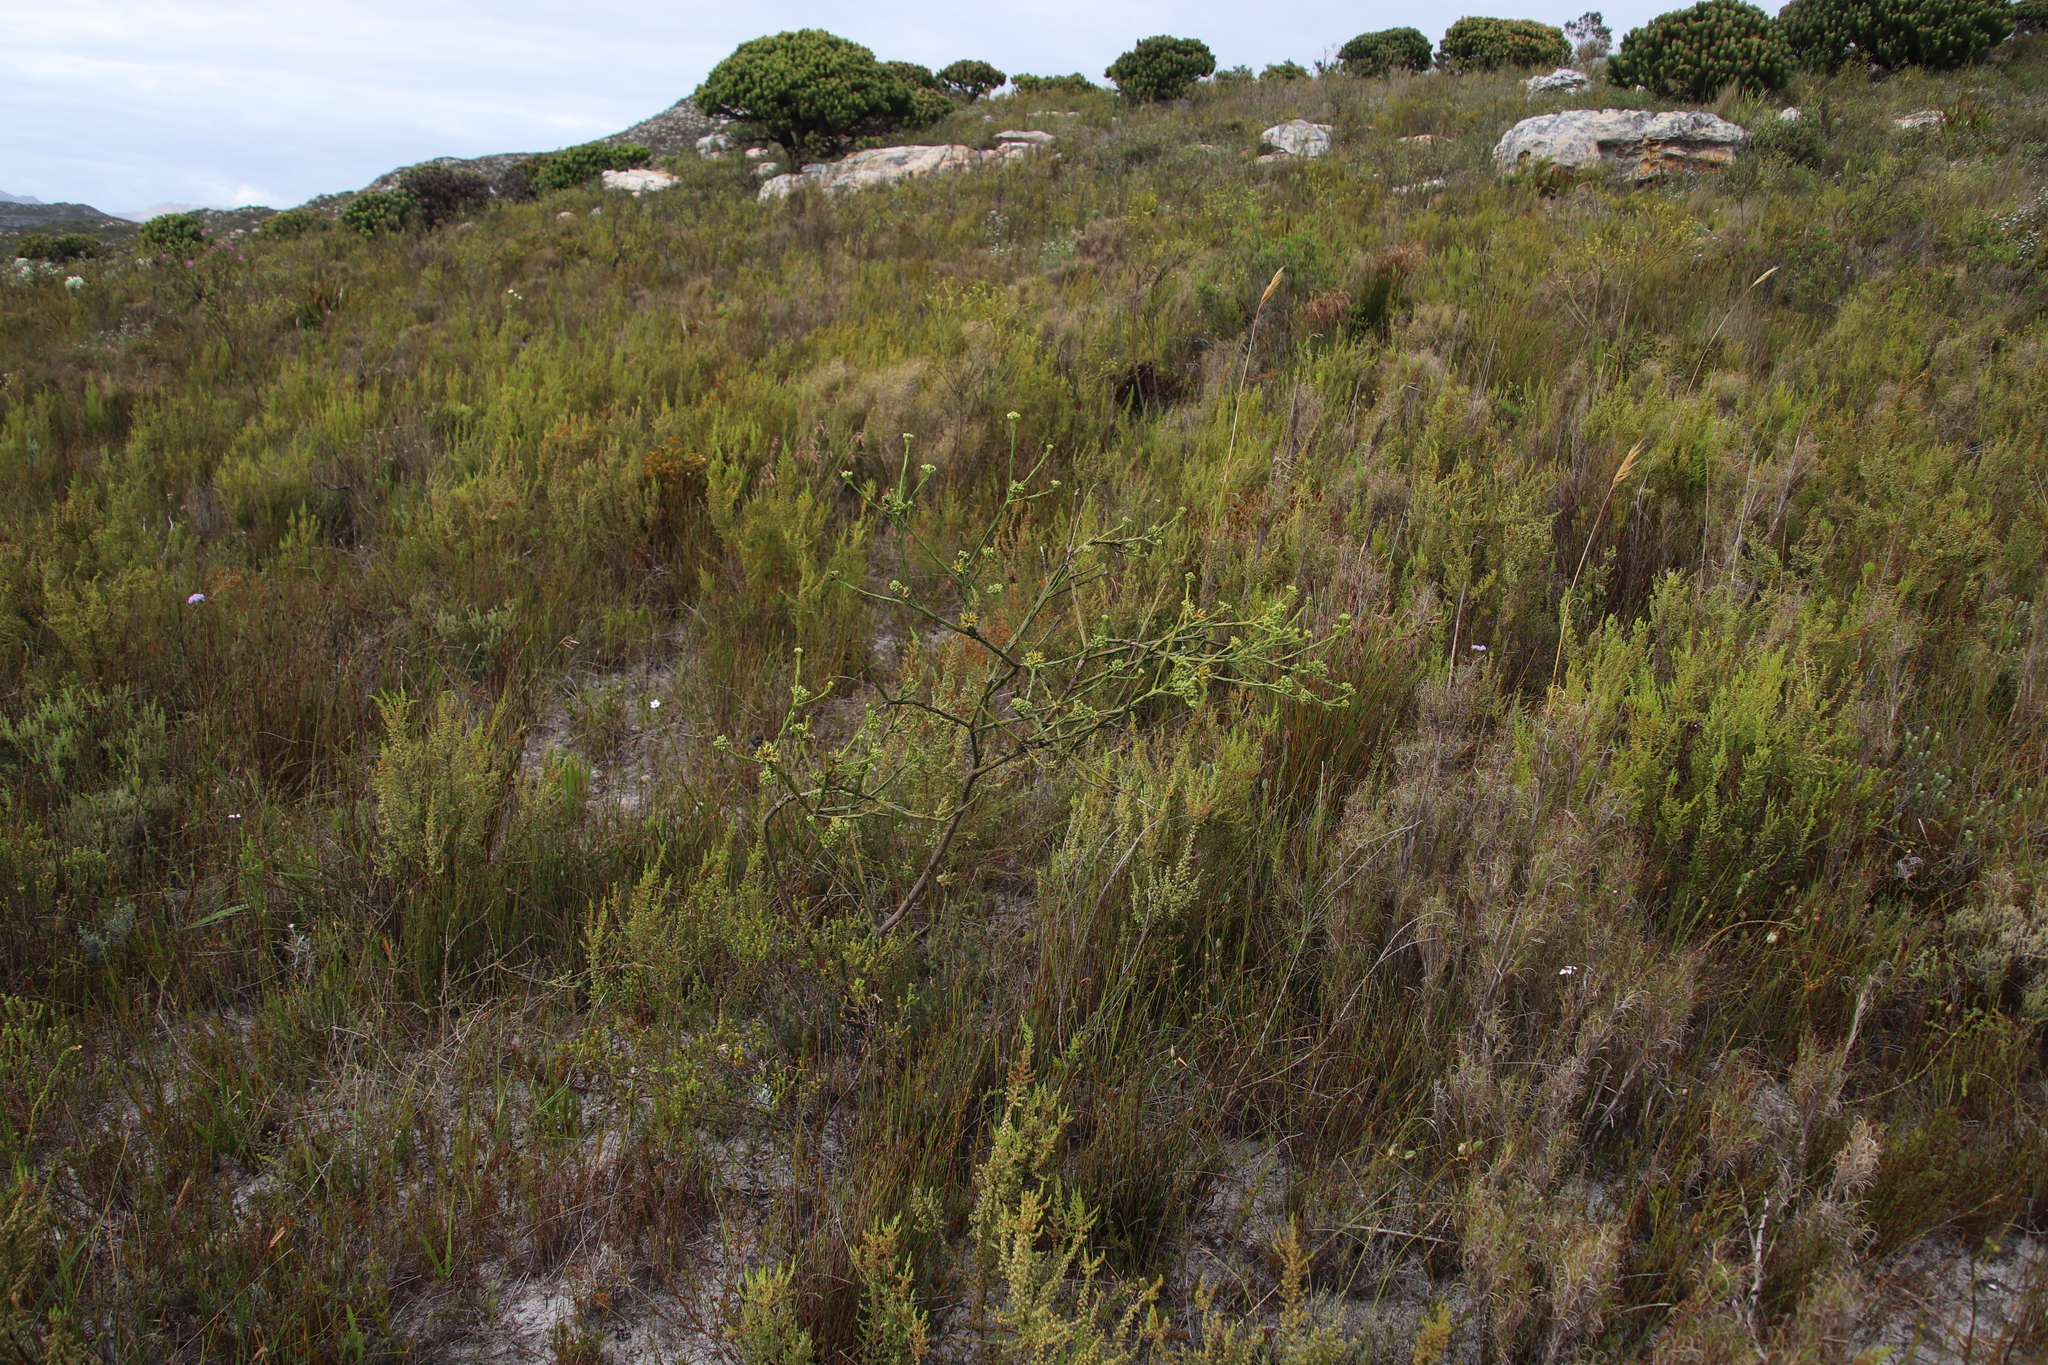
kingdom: Plantae
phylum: Tracheophyta
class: Magnoliopsida
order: Santalales
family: Thesiaceae
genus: Thesium
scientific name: Thesium strictum
